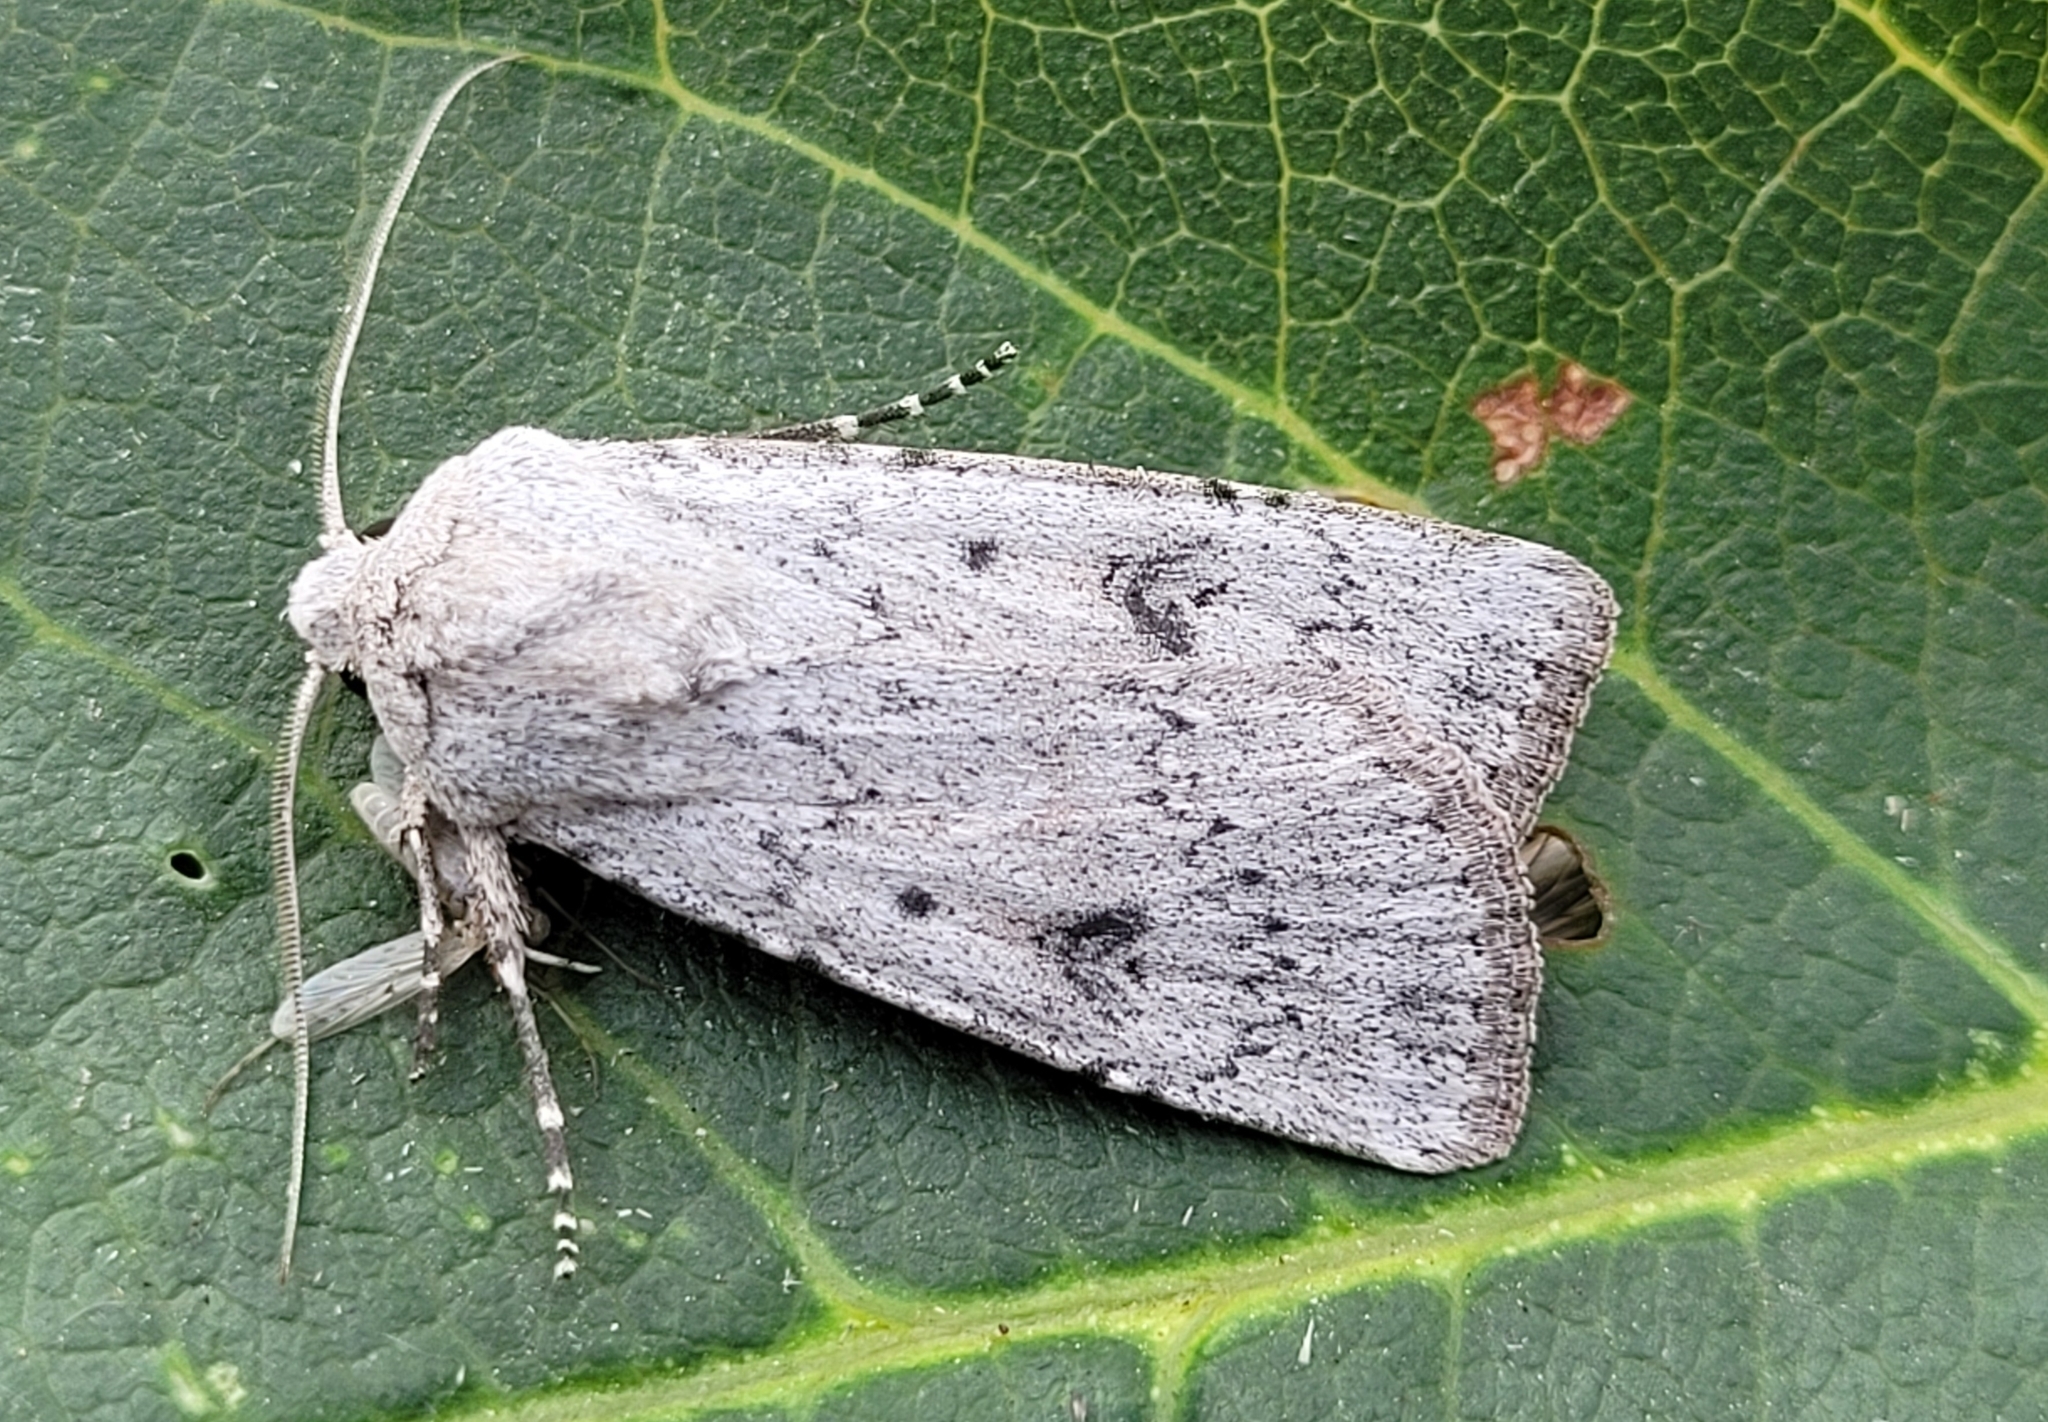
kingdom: Animalia
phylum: Arthropoda
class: Insecta
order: Lepidoptera
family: Noctuidae
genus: Agrotis
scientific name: Agrotis vetusta
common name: Old man dart
